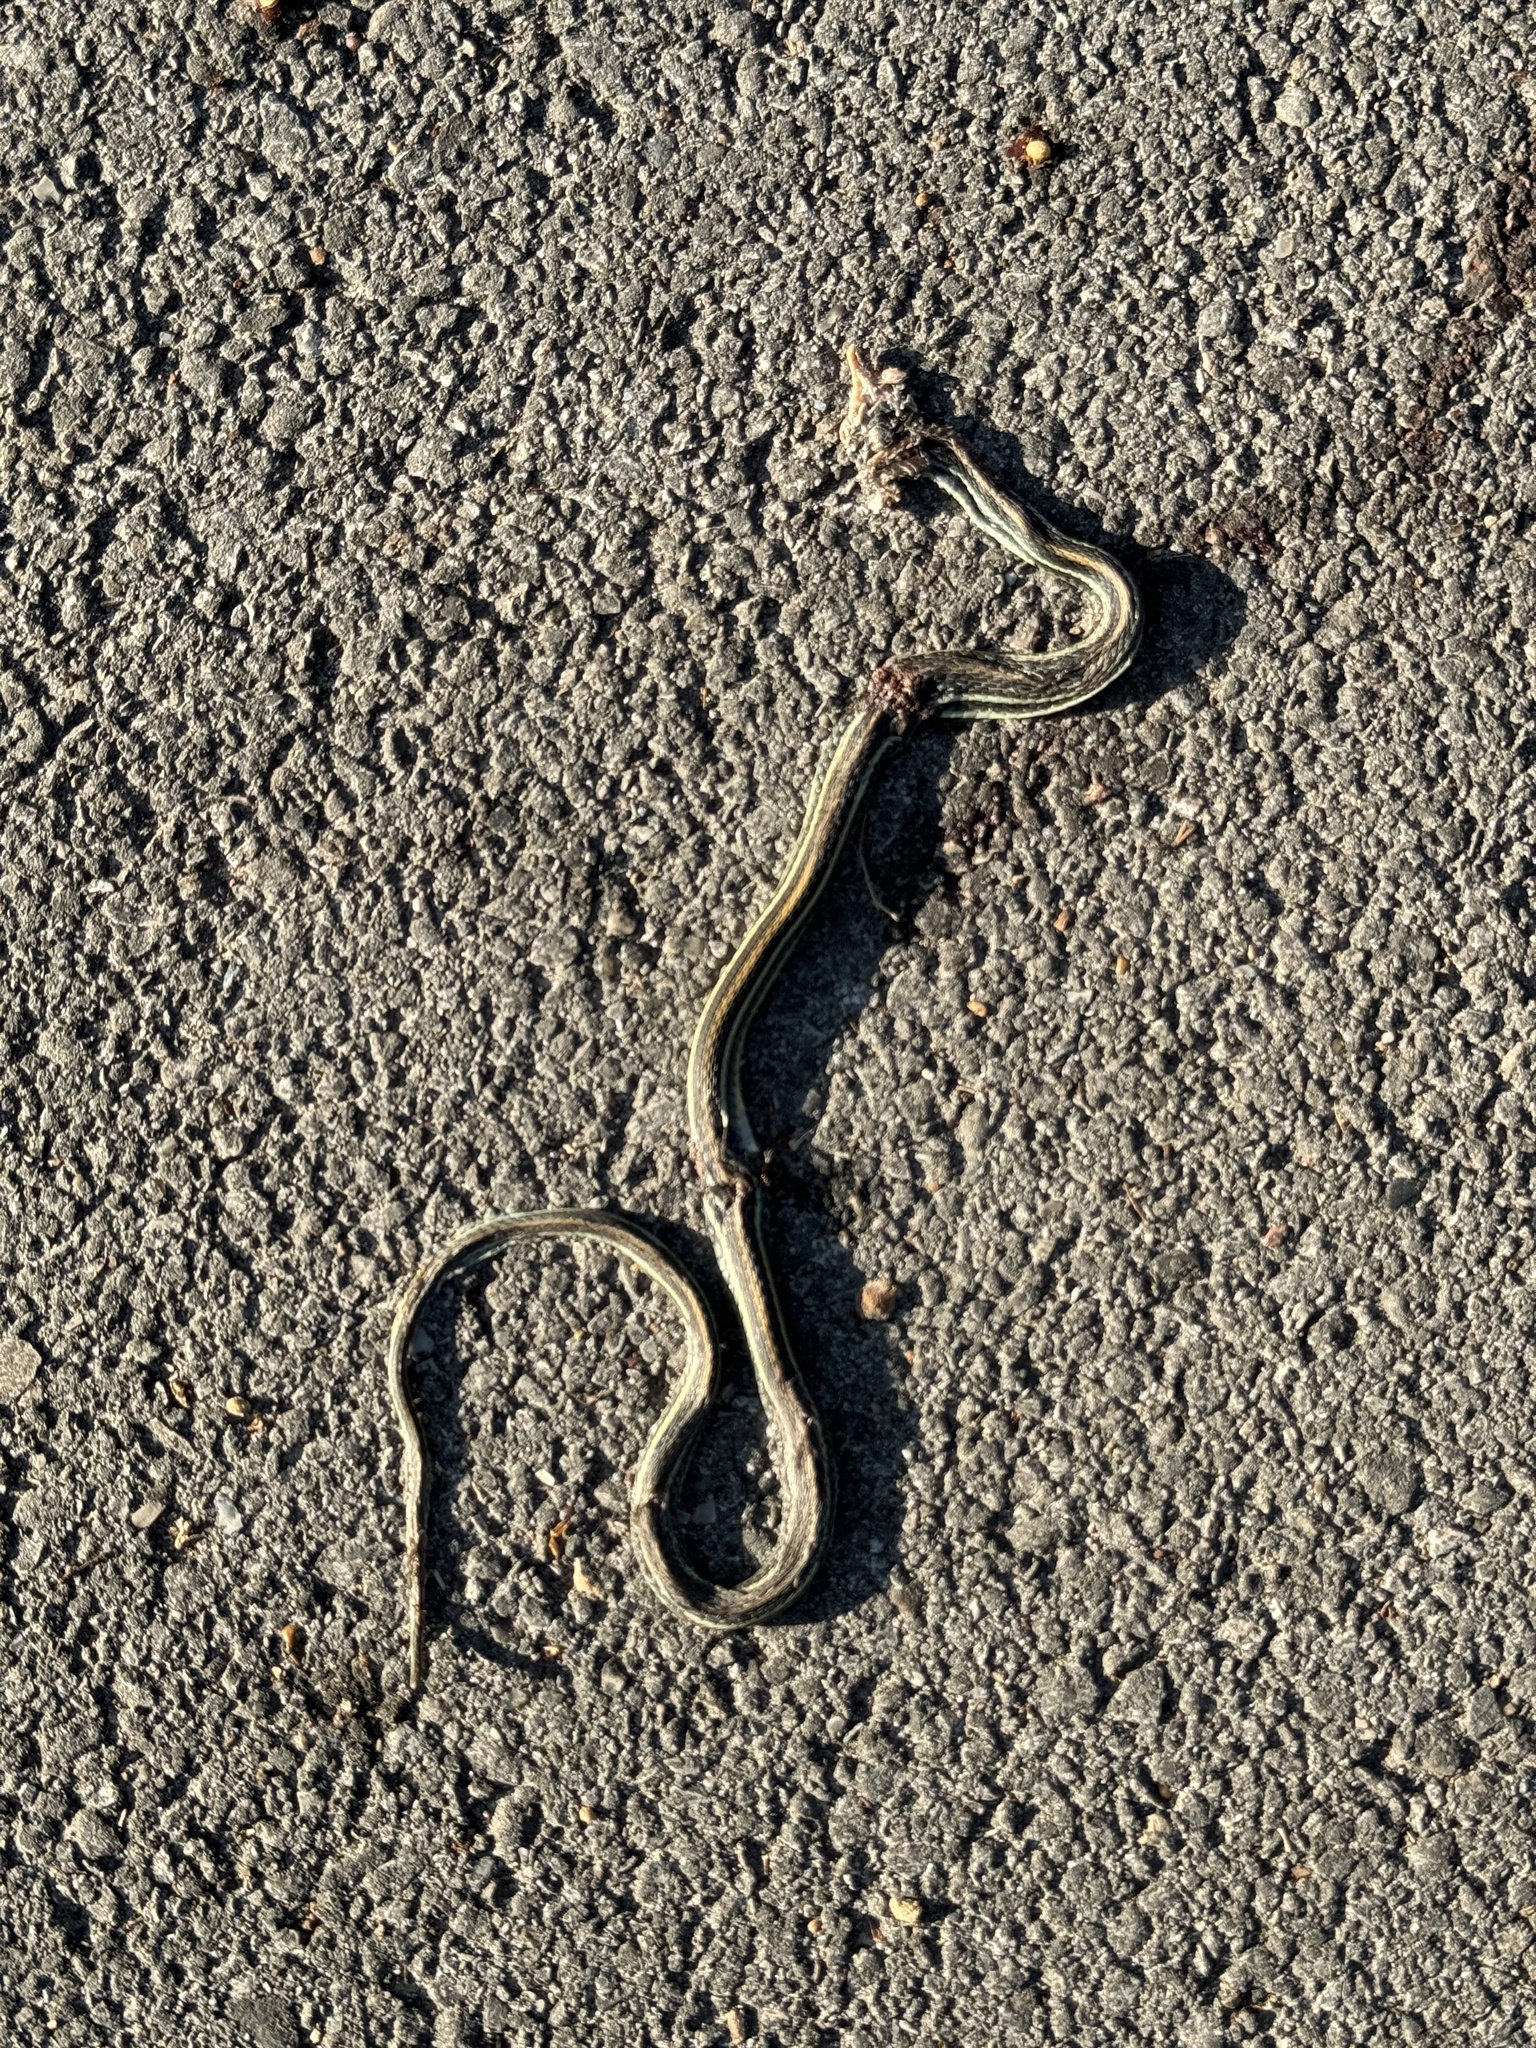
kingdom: Animalia
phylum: Chordata
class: Squamata
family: Colubridae
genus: Thamnophis
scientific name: Thamnophis proximus
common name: Western ribbon snake
